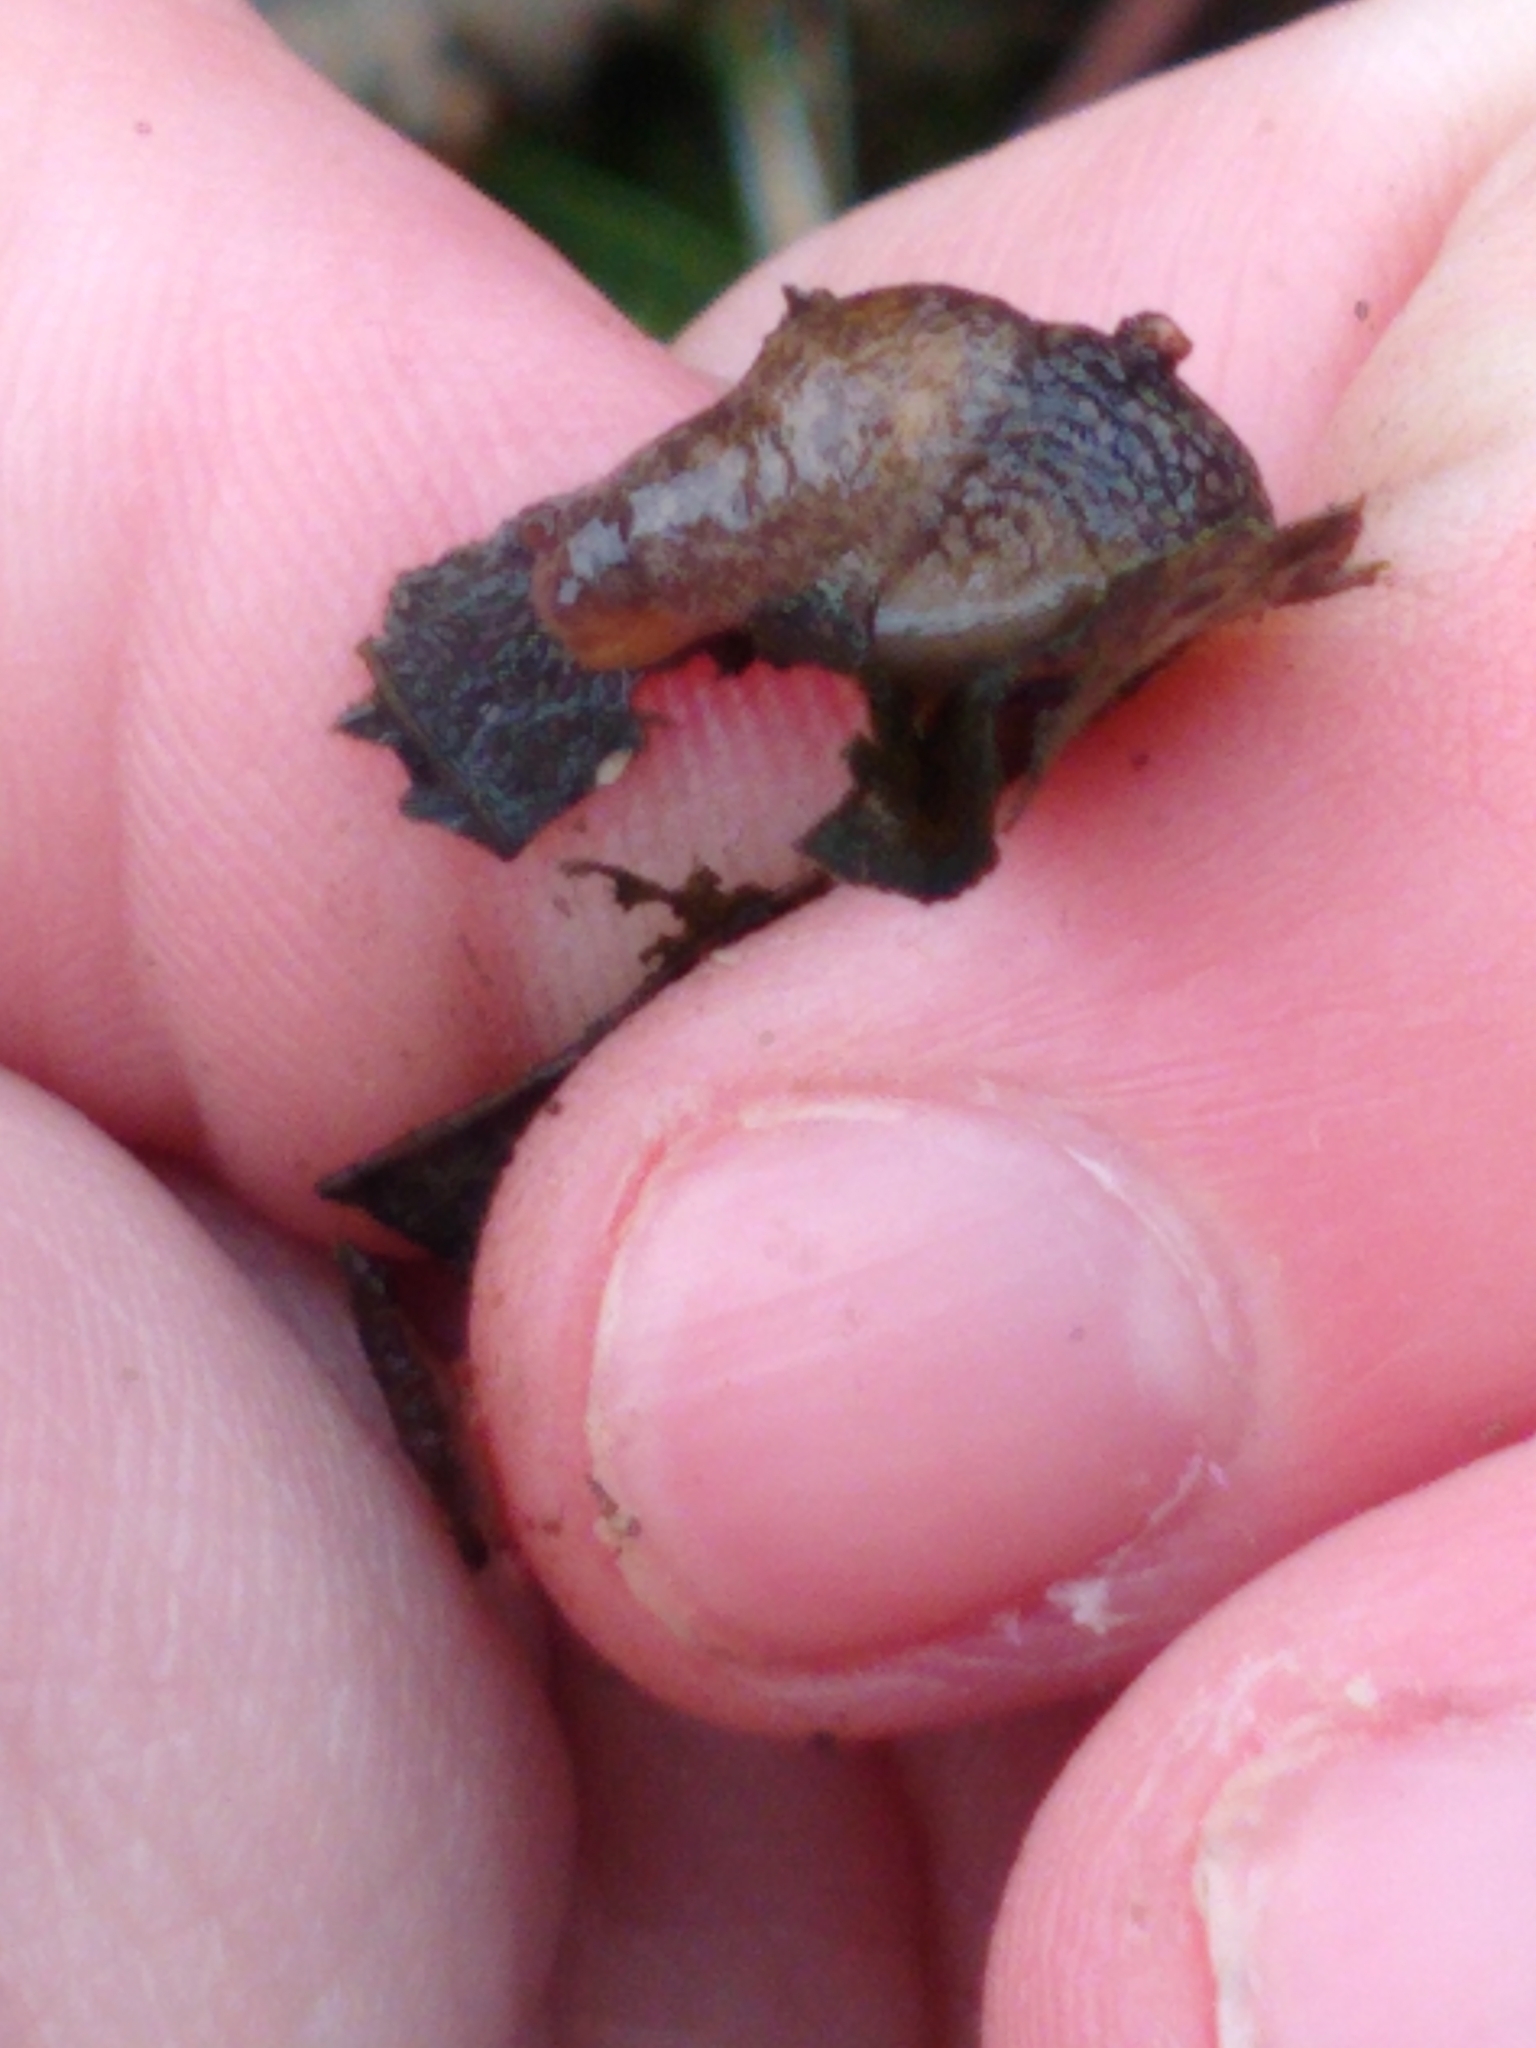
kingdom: Animalia
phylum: Mollusca
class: Gastropoda
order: Stylommatophora
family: Agriolimacidae
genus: Deroceras
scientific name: Deroceras reticulatum
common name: Gray field slug
